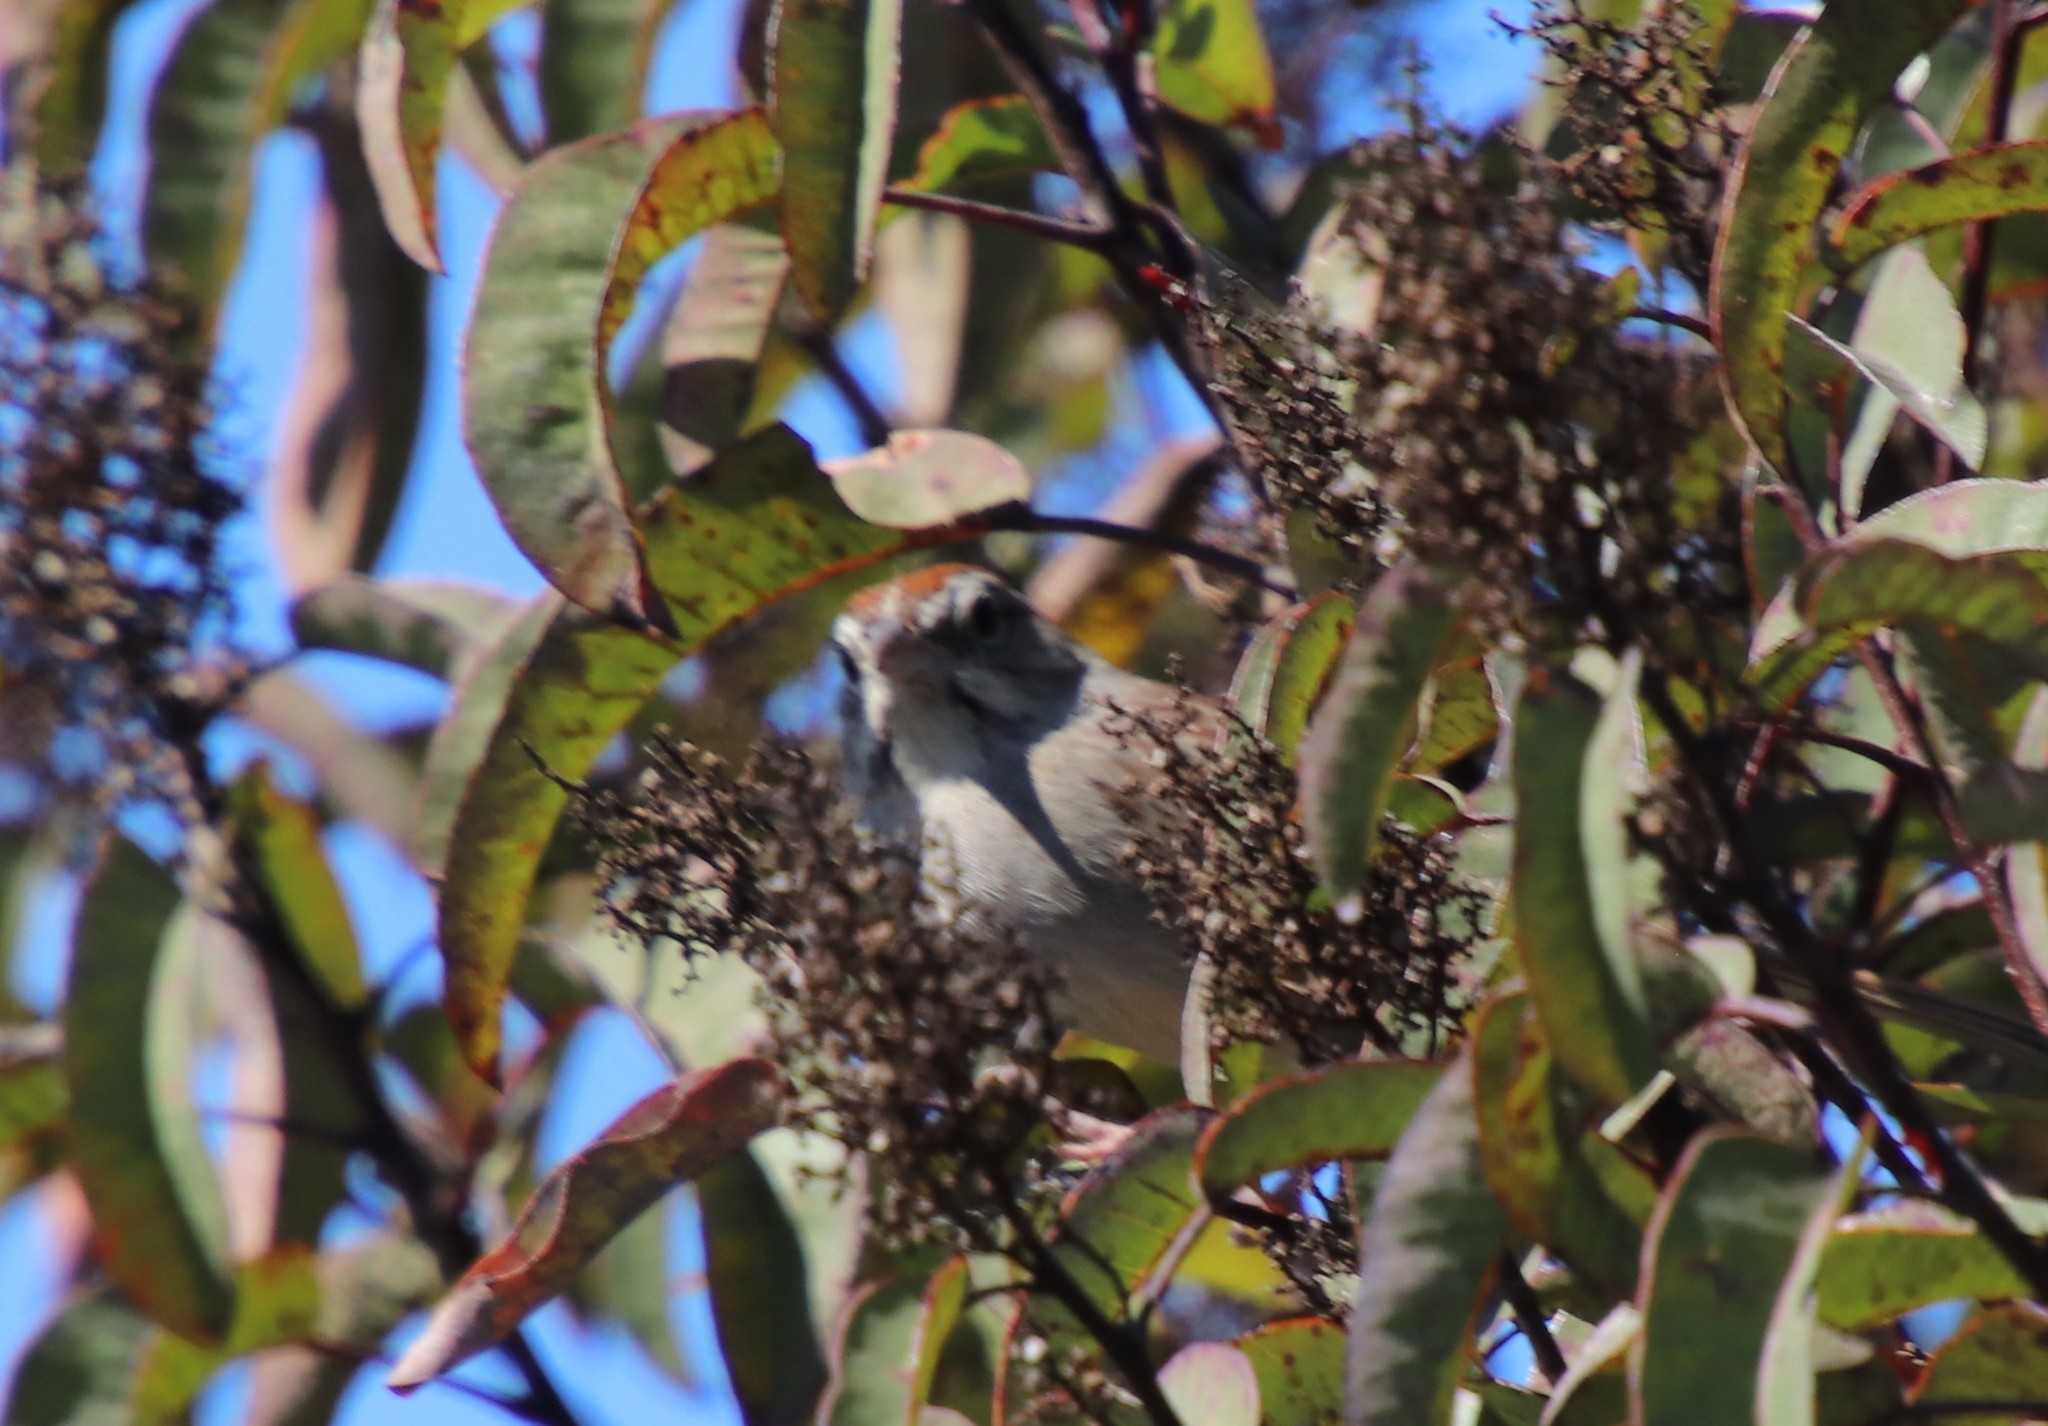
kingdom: Animalia
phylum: Chordata
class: Aves
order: Passeriformes
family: Passerellidae
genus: Aimophila
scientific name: Aimophila ruficeps
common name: Rufous-crowned sparrow
